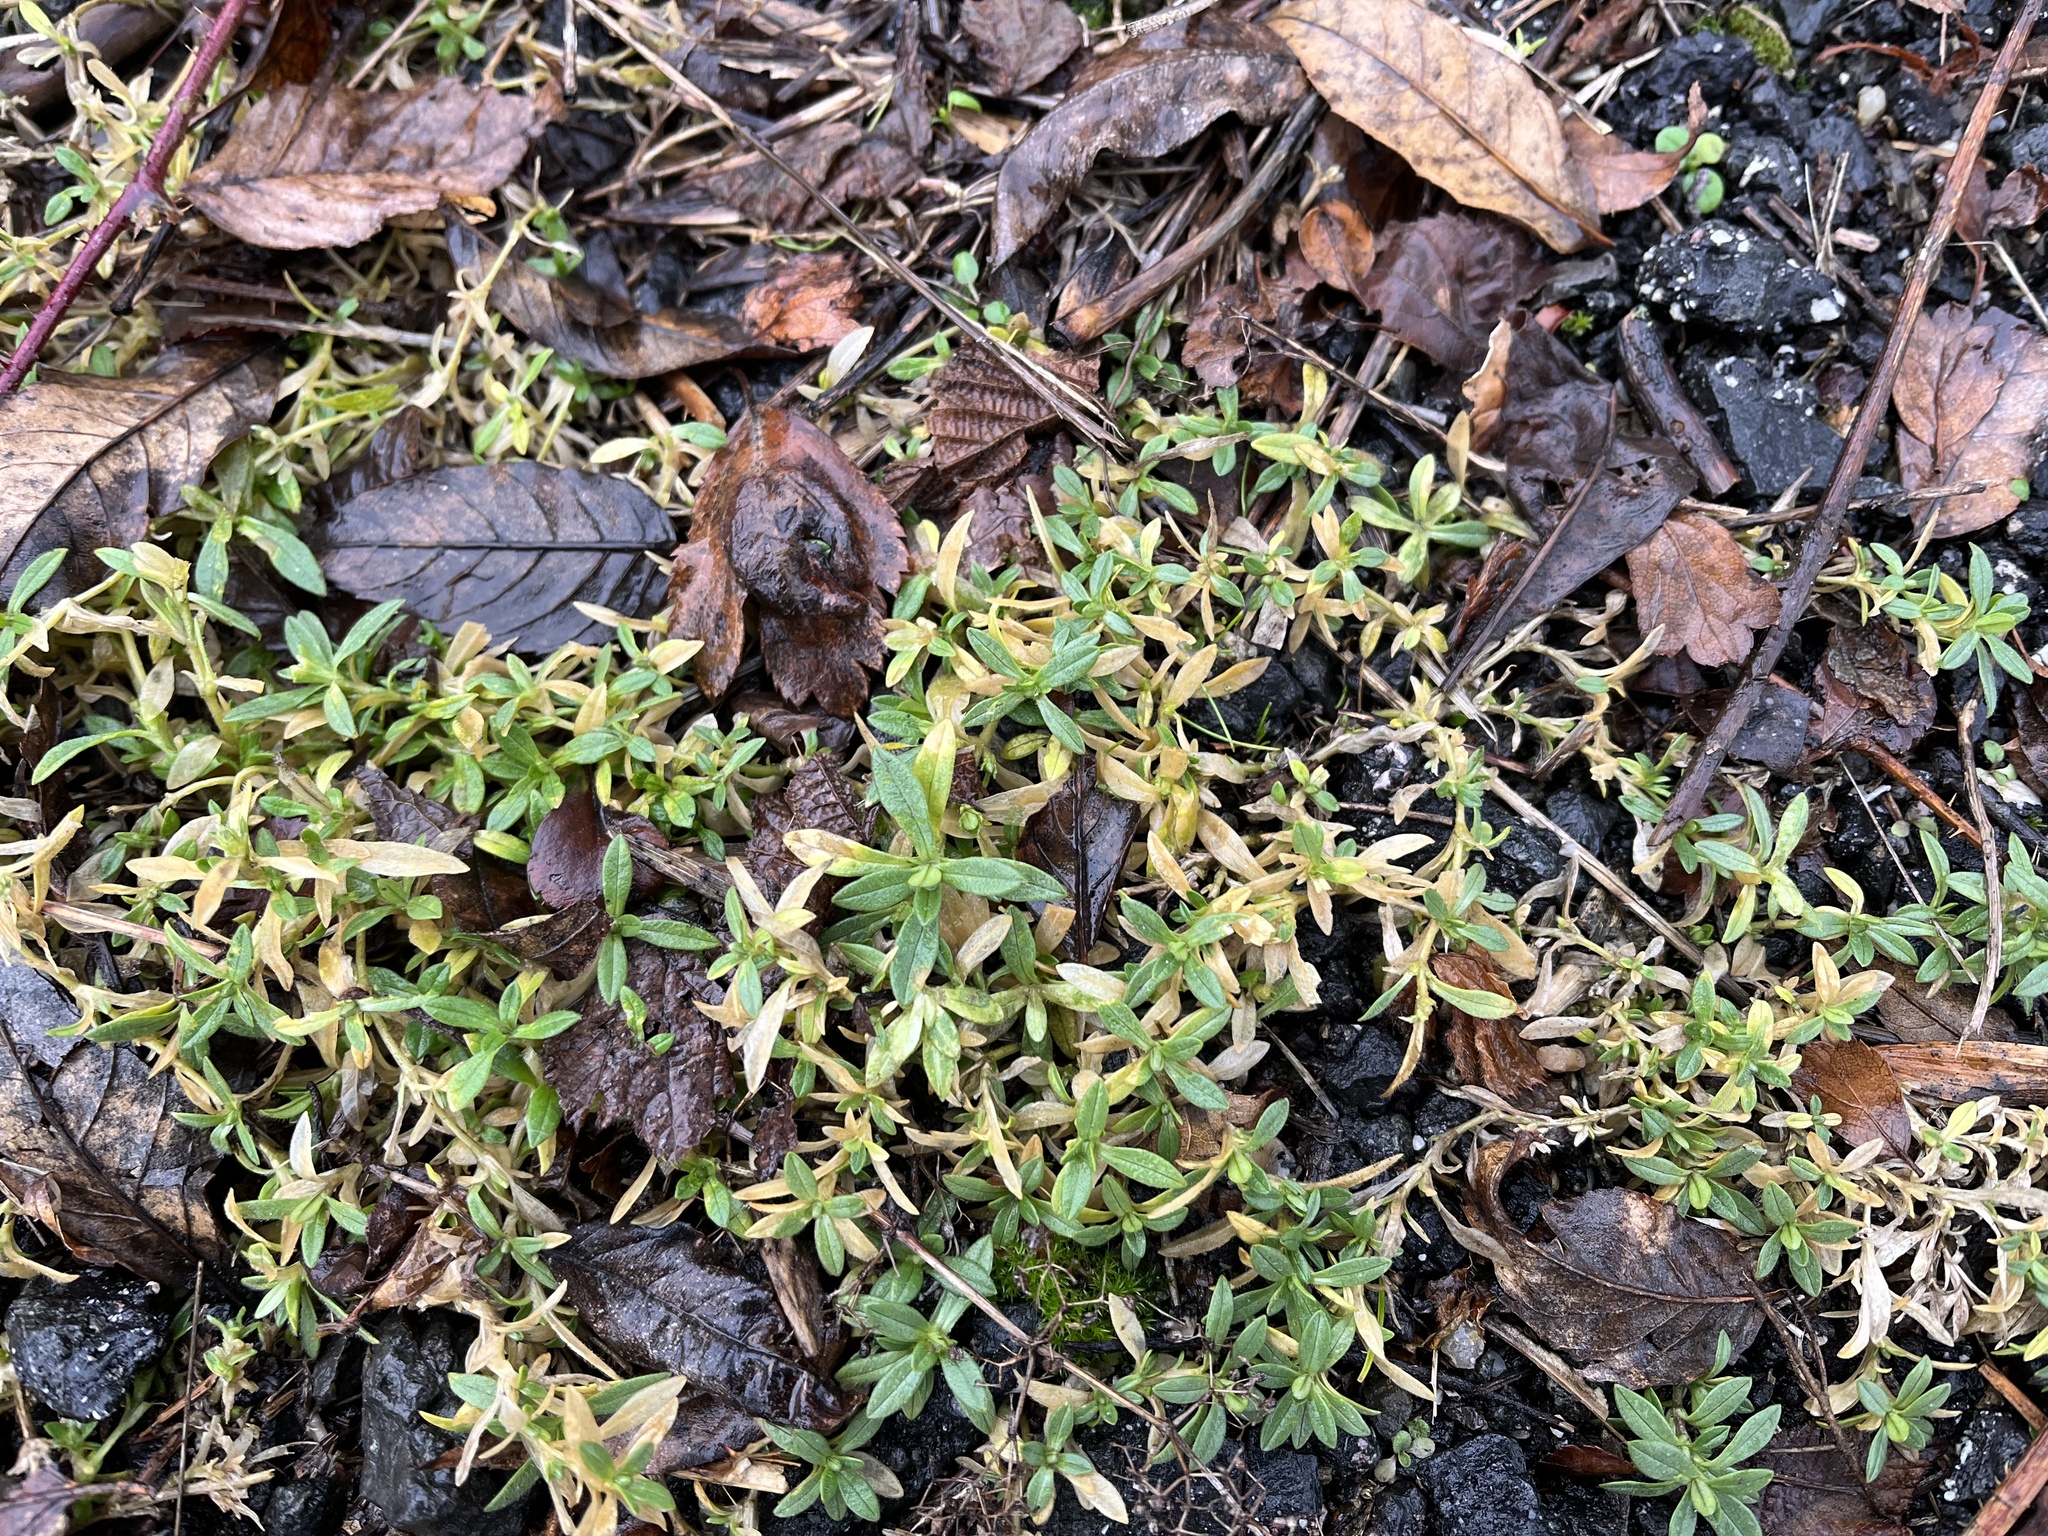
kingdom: Plantae
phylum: Tracheophyta
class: Magnoliopsida
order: Caryophyllales
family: Caryophyllaceae
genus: Cerastium
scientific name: Cerastium arvense
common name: Field mouse-ear
